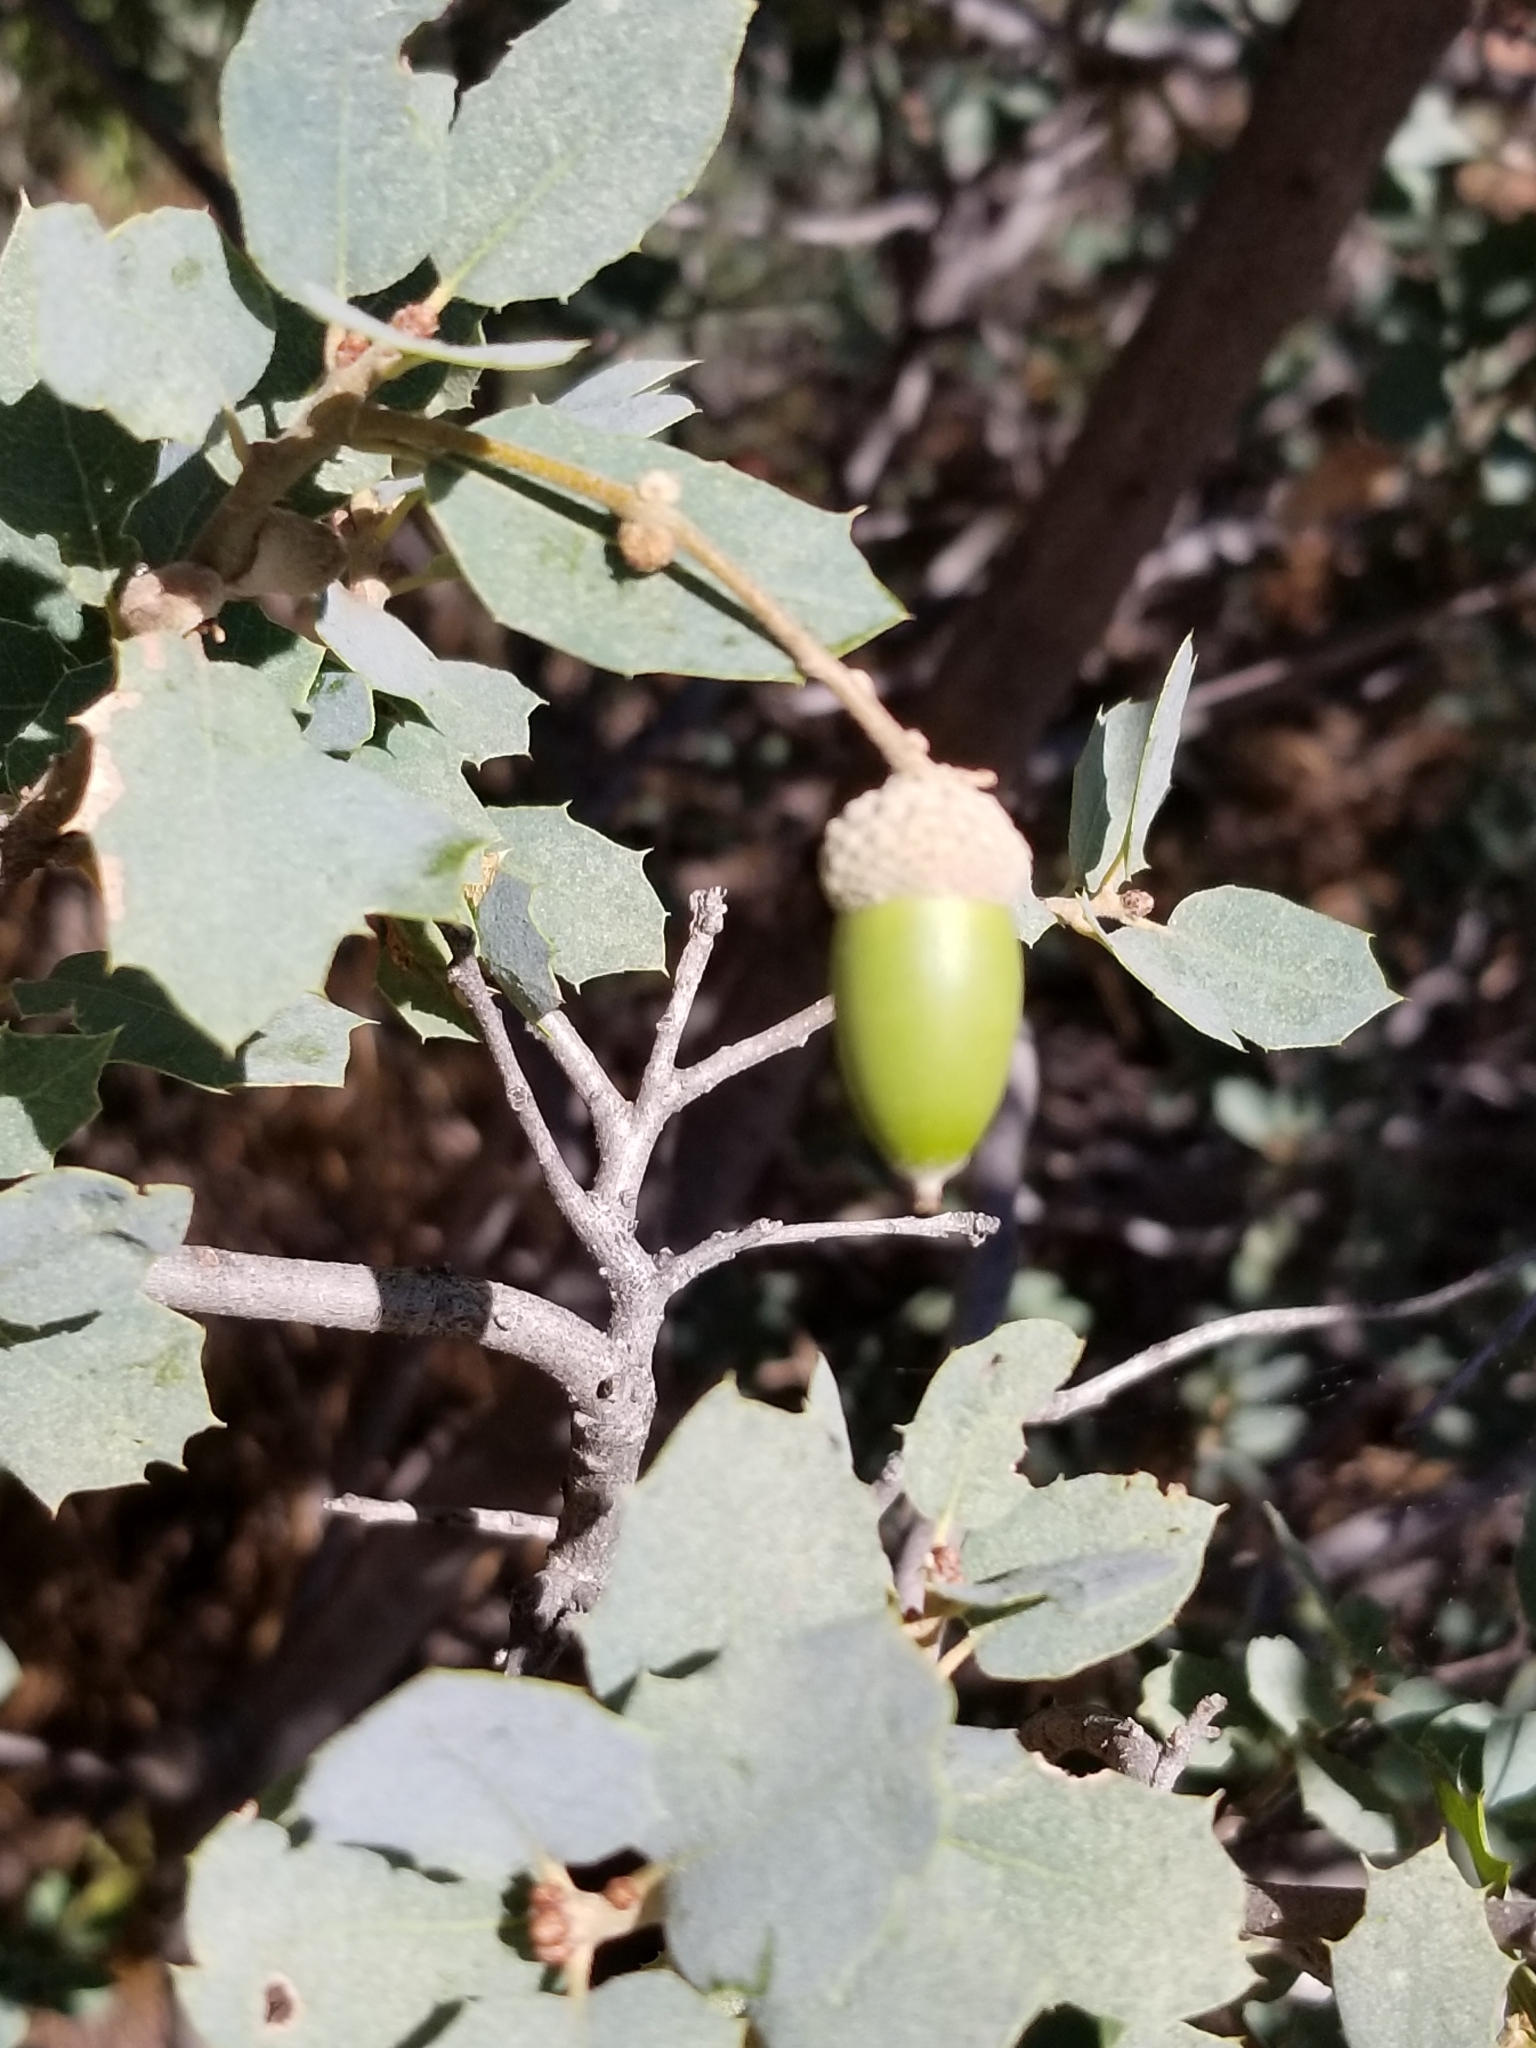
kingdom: Plantae
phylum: Tracheophyta
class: Magnoliopsida
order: Fagales
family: Fagaceae
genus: Quercus
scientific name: Quercus turbinella
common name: Sonoran scrub oak
